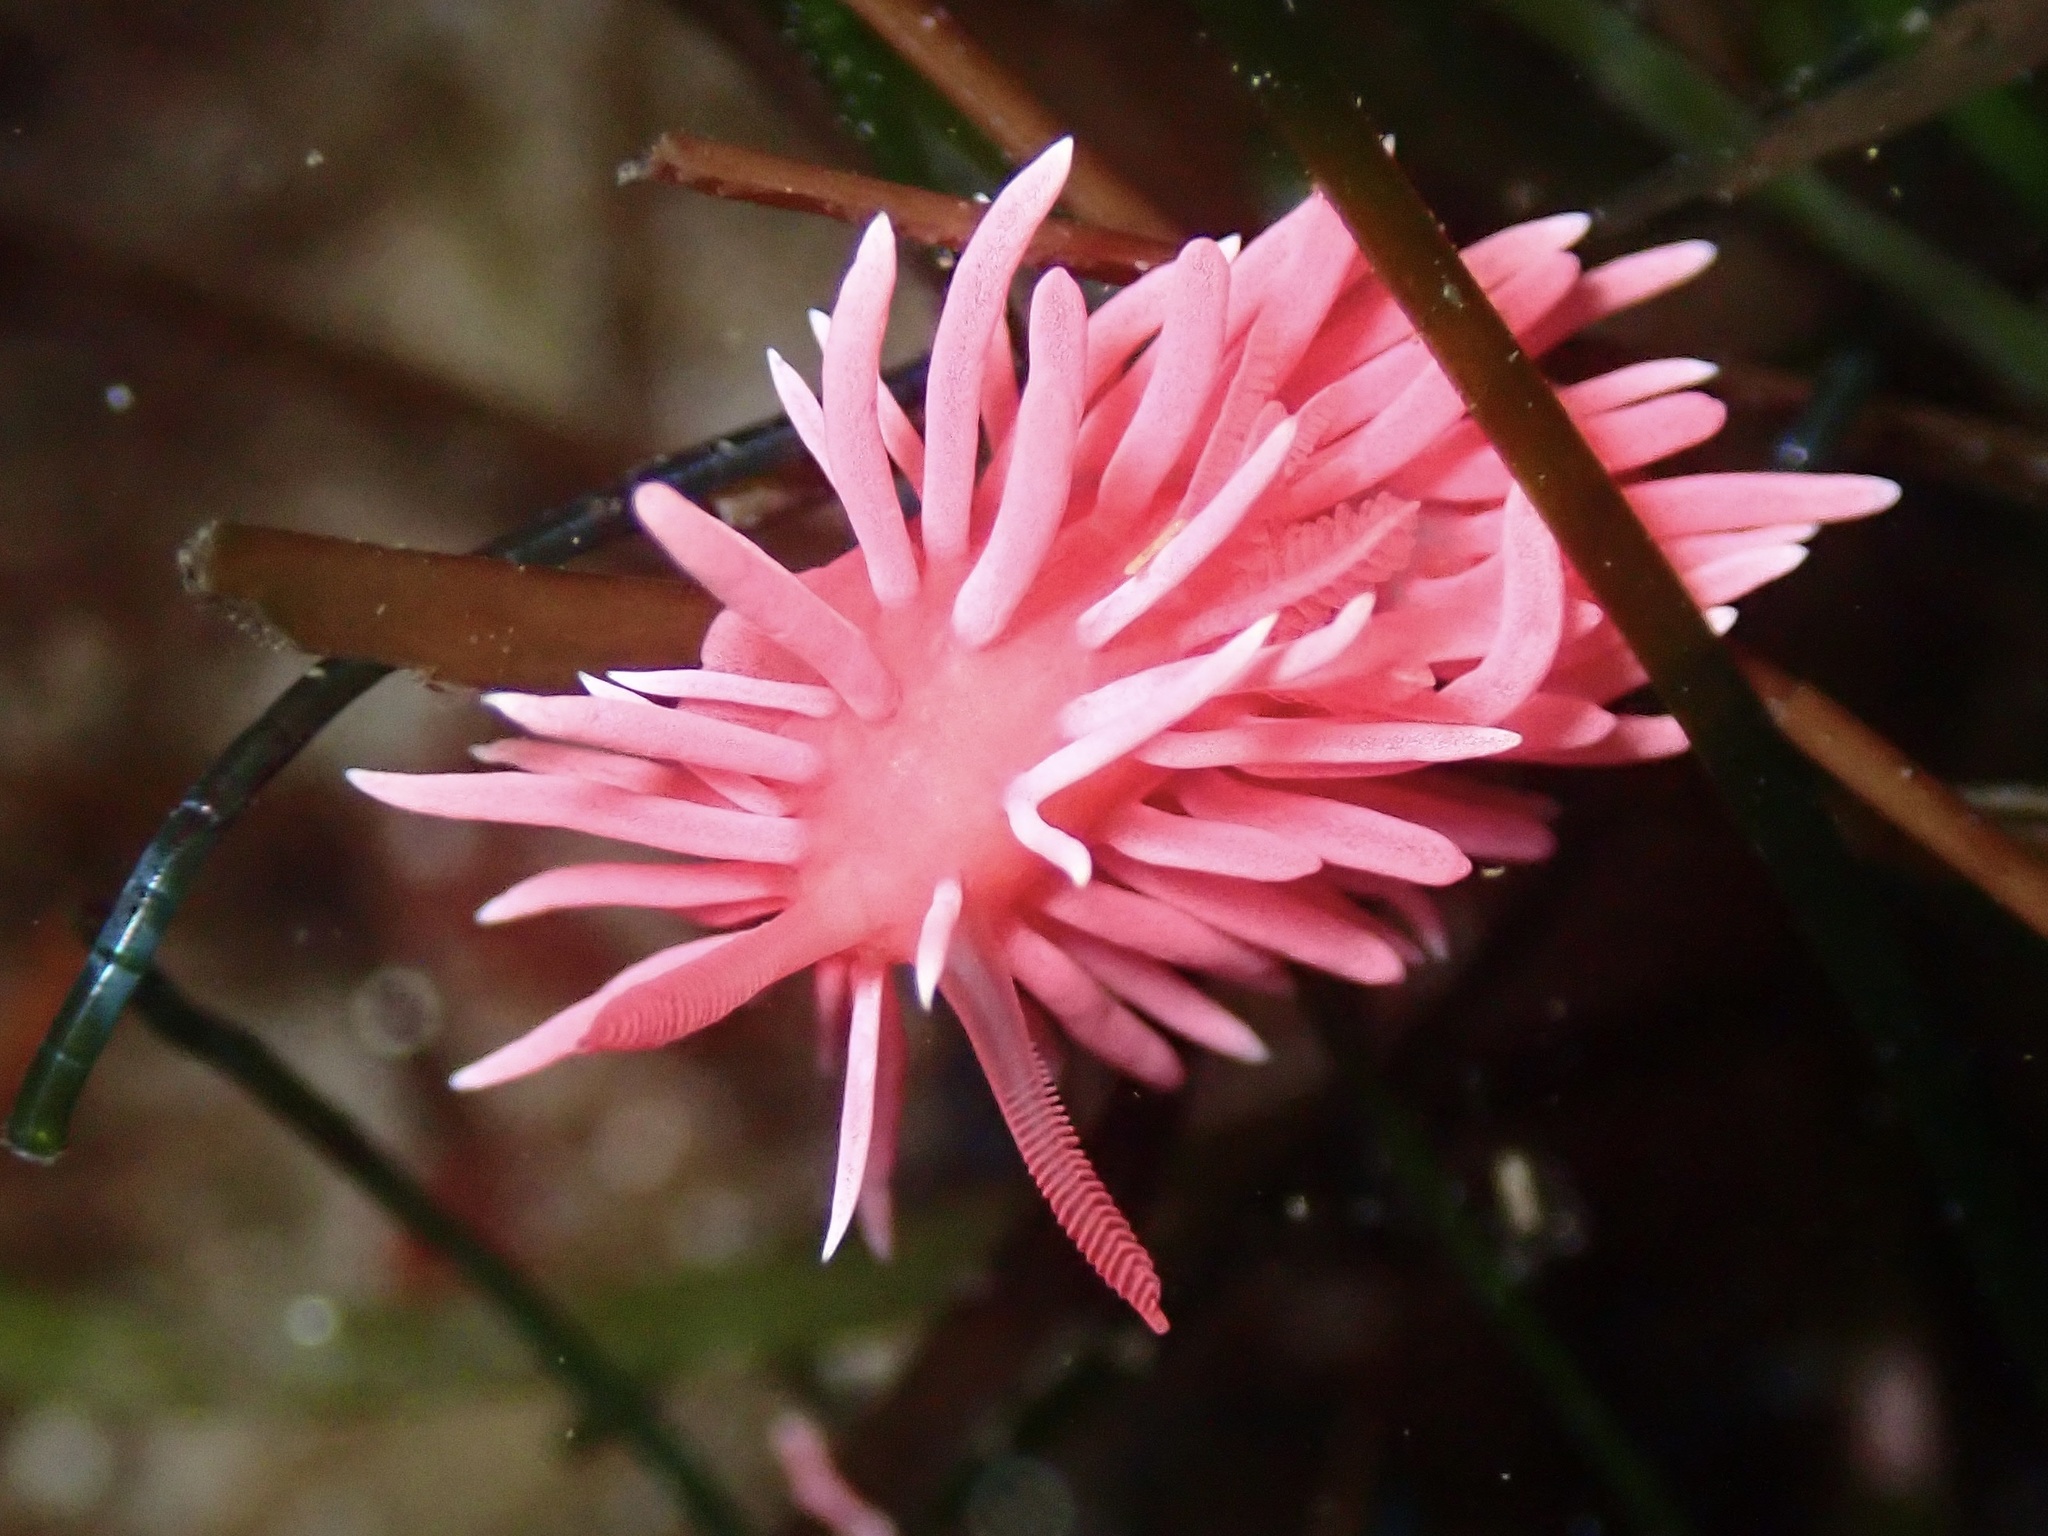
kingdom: Animalia
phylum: Mollusca
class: Gastropoda
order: Nudibranchia
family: Goniodorididae
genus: Okenia
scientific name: Okenia
